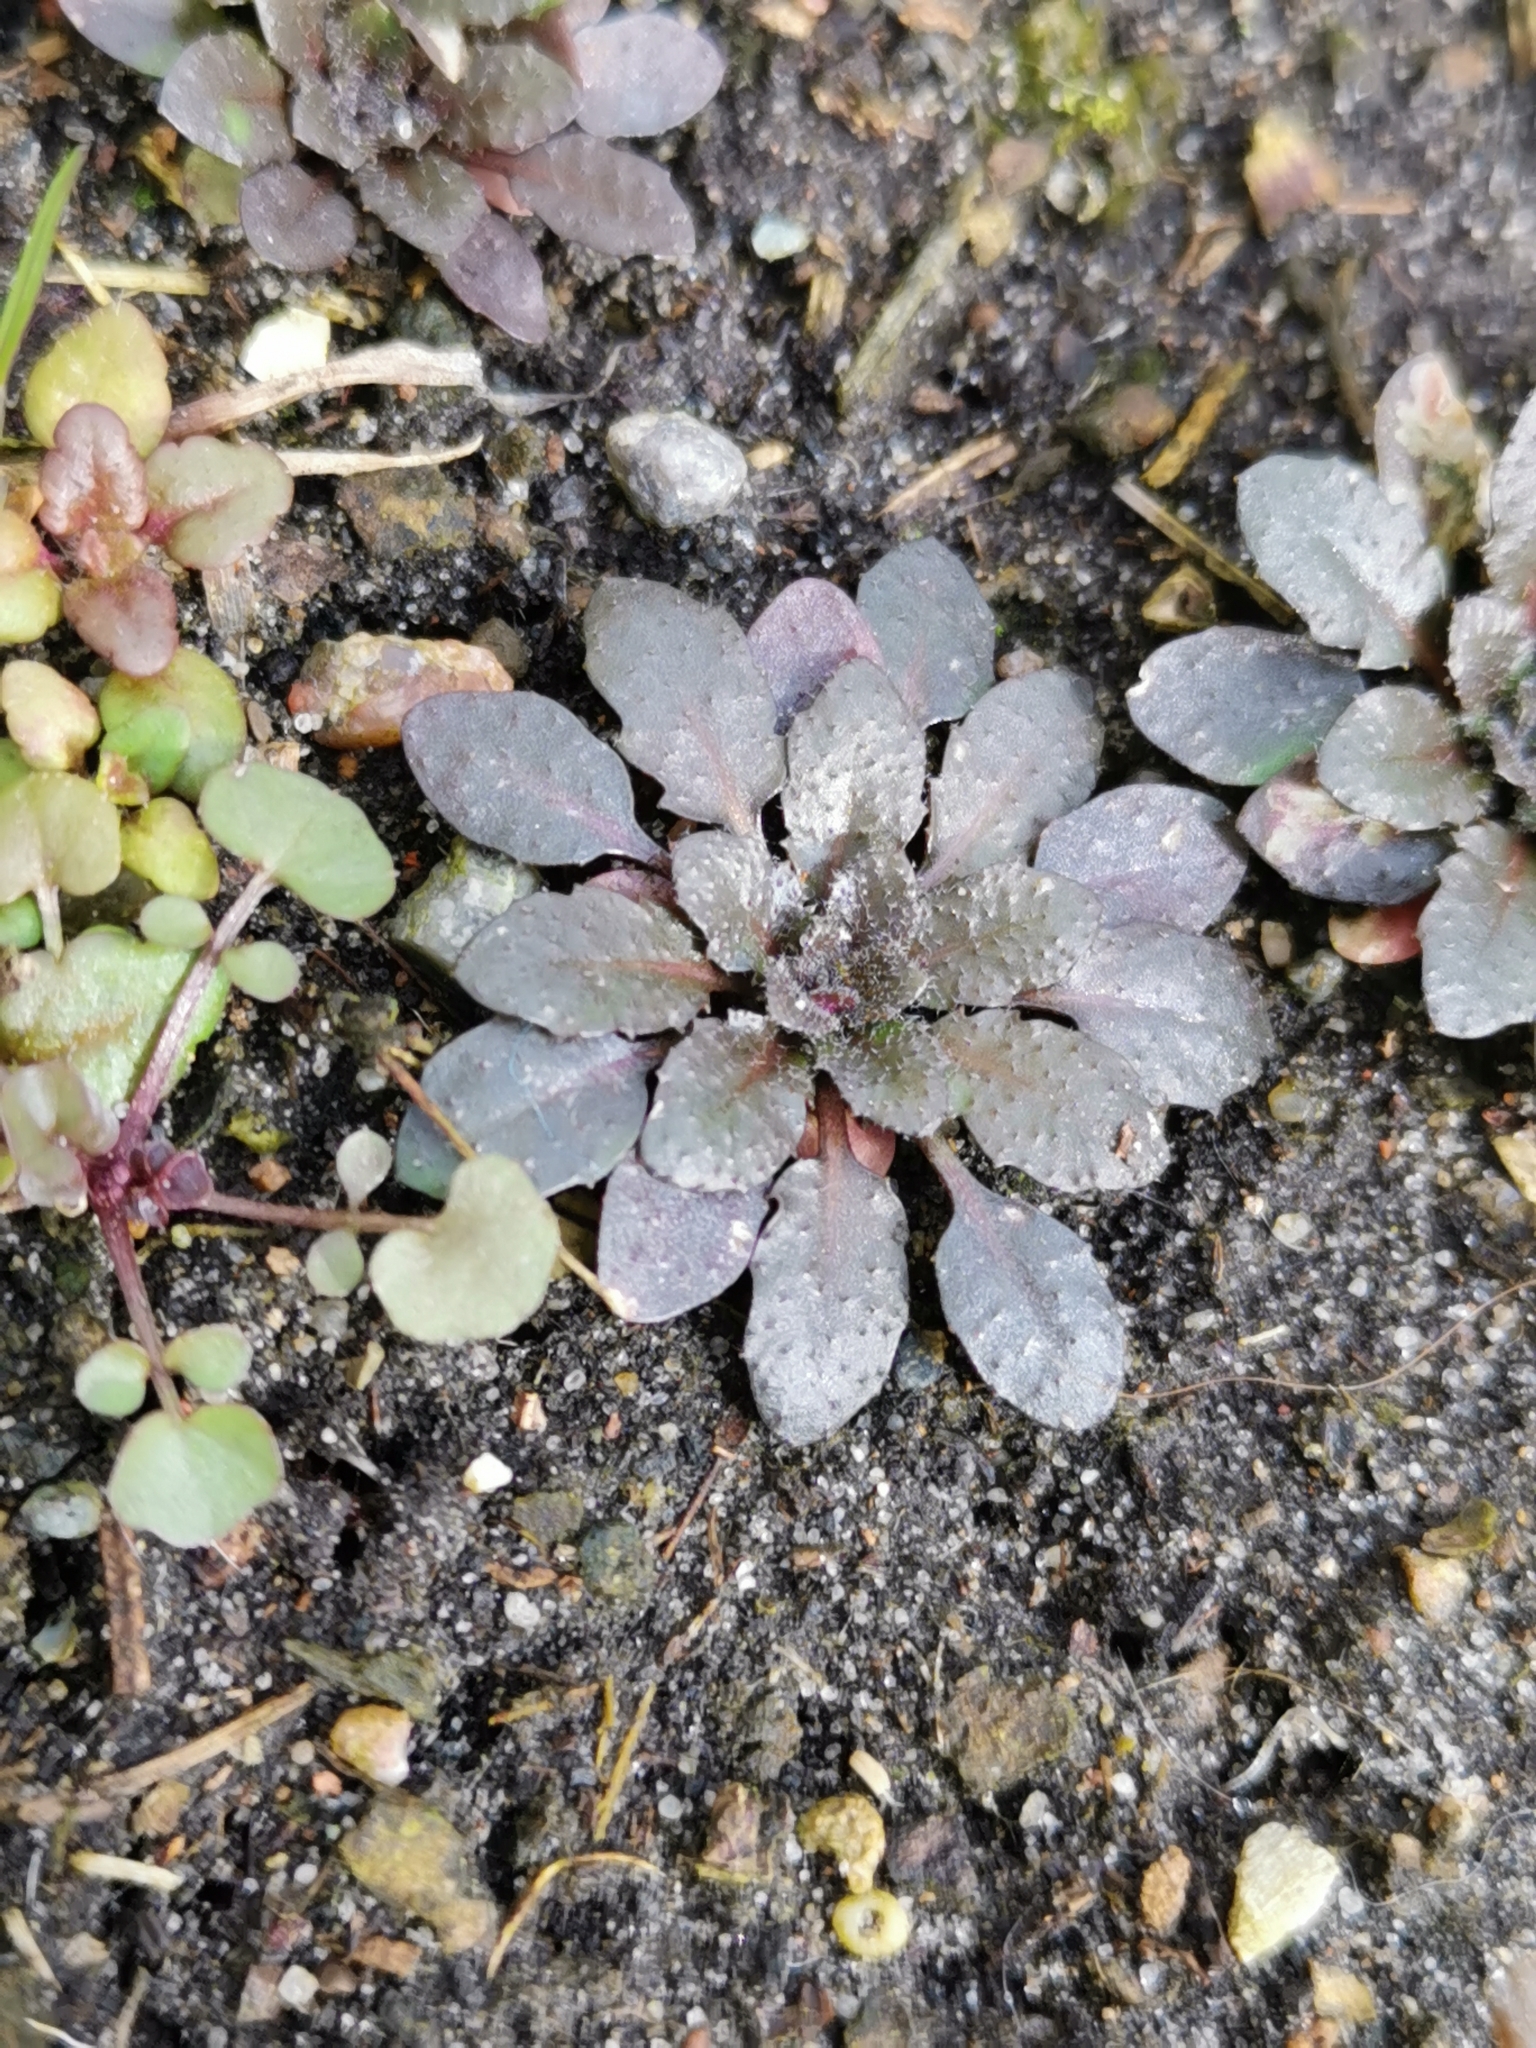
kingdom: Plantae
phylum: Tracheophyta
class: Magnoliopsida
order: Brassicales
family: Brassicaceae
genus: Arabidopsis
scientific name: Arabidopsis thaliana
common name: Thale cress
